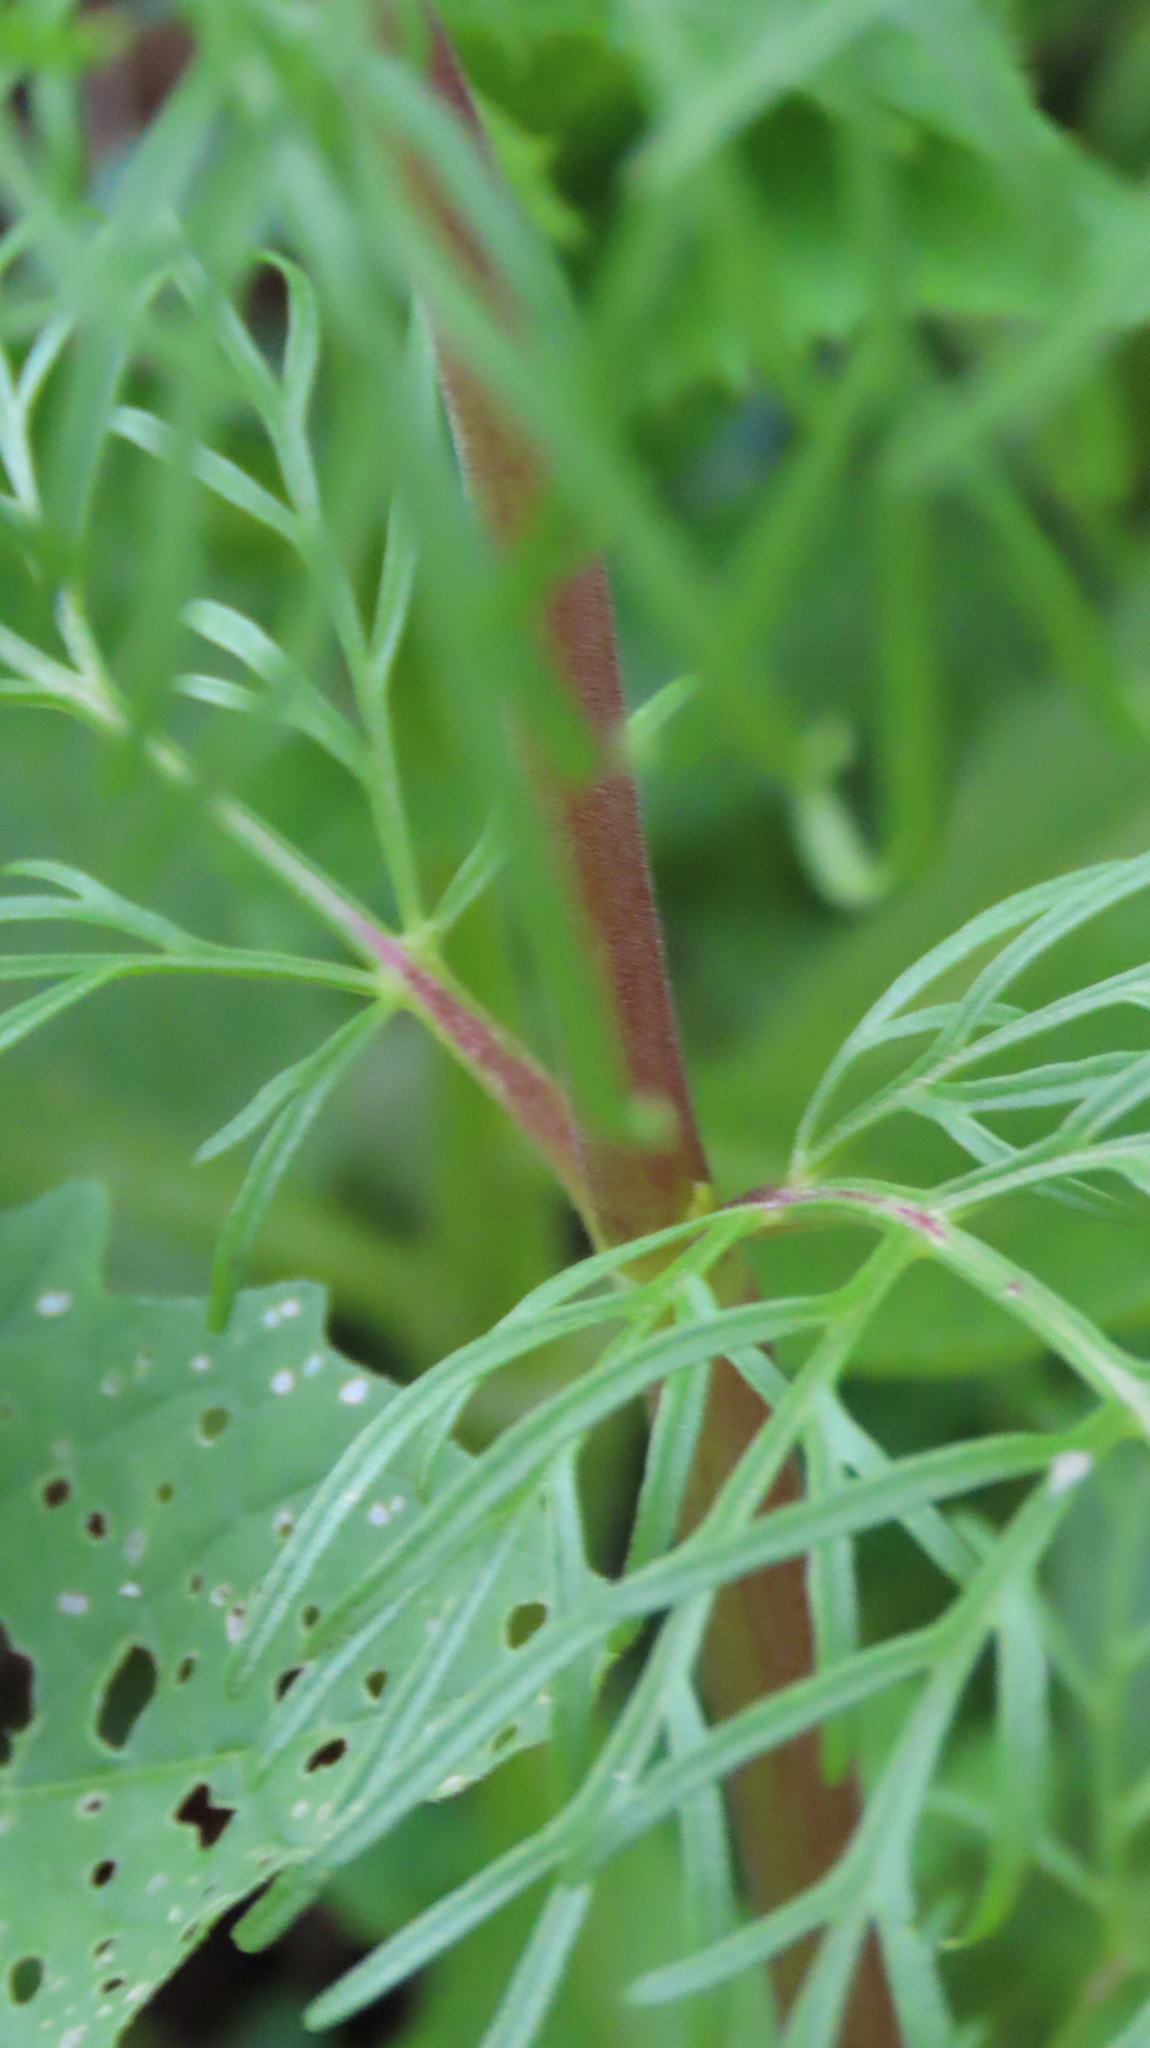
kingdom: Plantae
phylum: Tracheophyta
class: Magnoliopsida
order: Asterales
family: Asteraceae
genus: Cosmos
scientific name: Cosmos bipinnatus
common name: Garden cosmos
